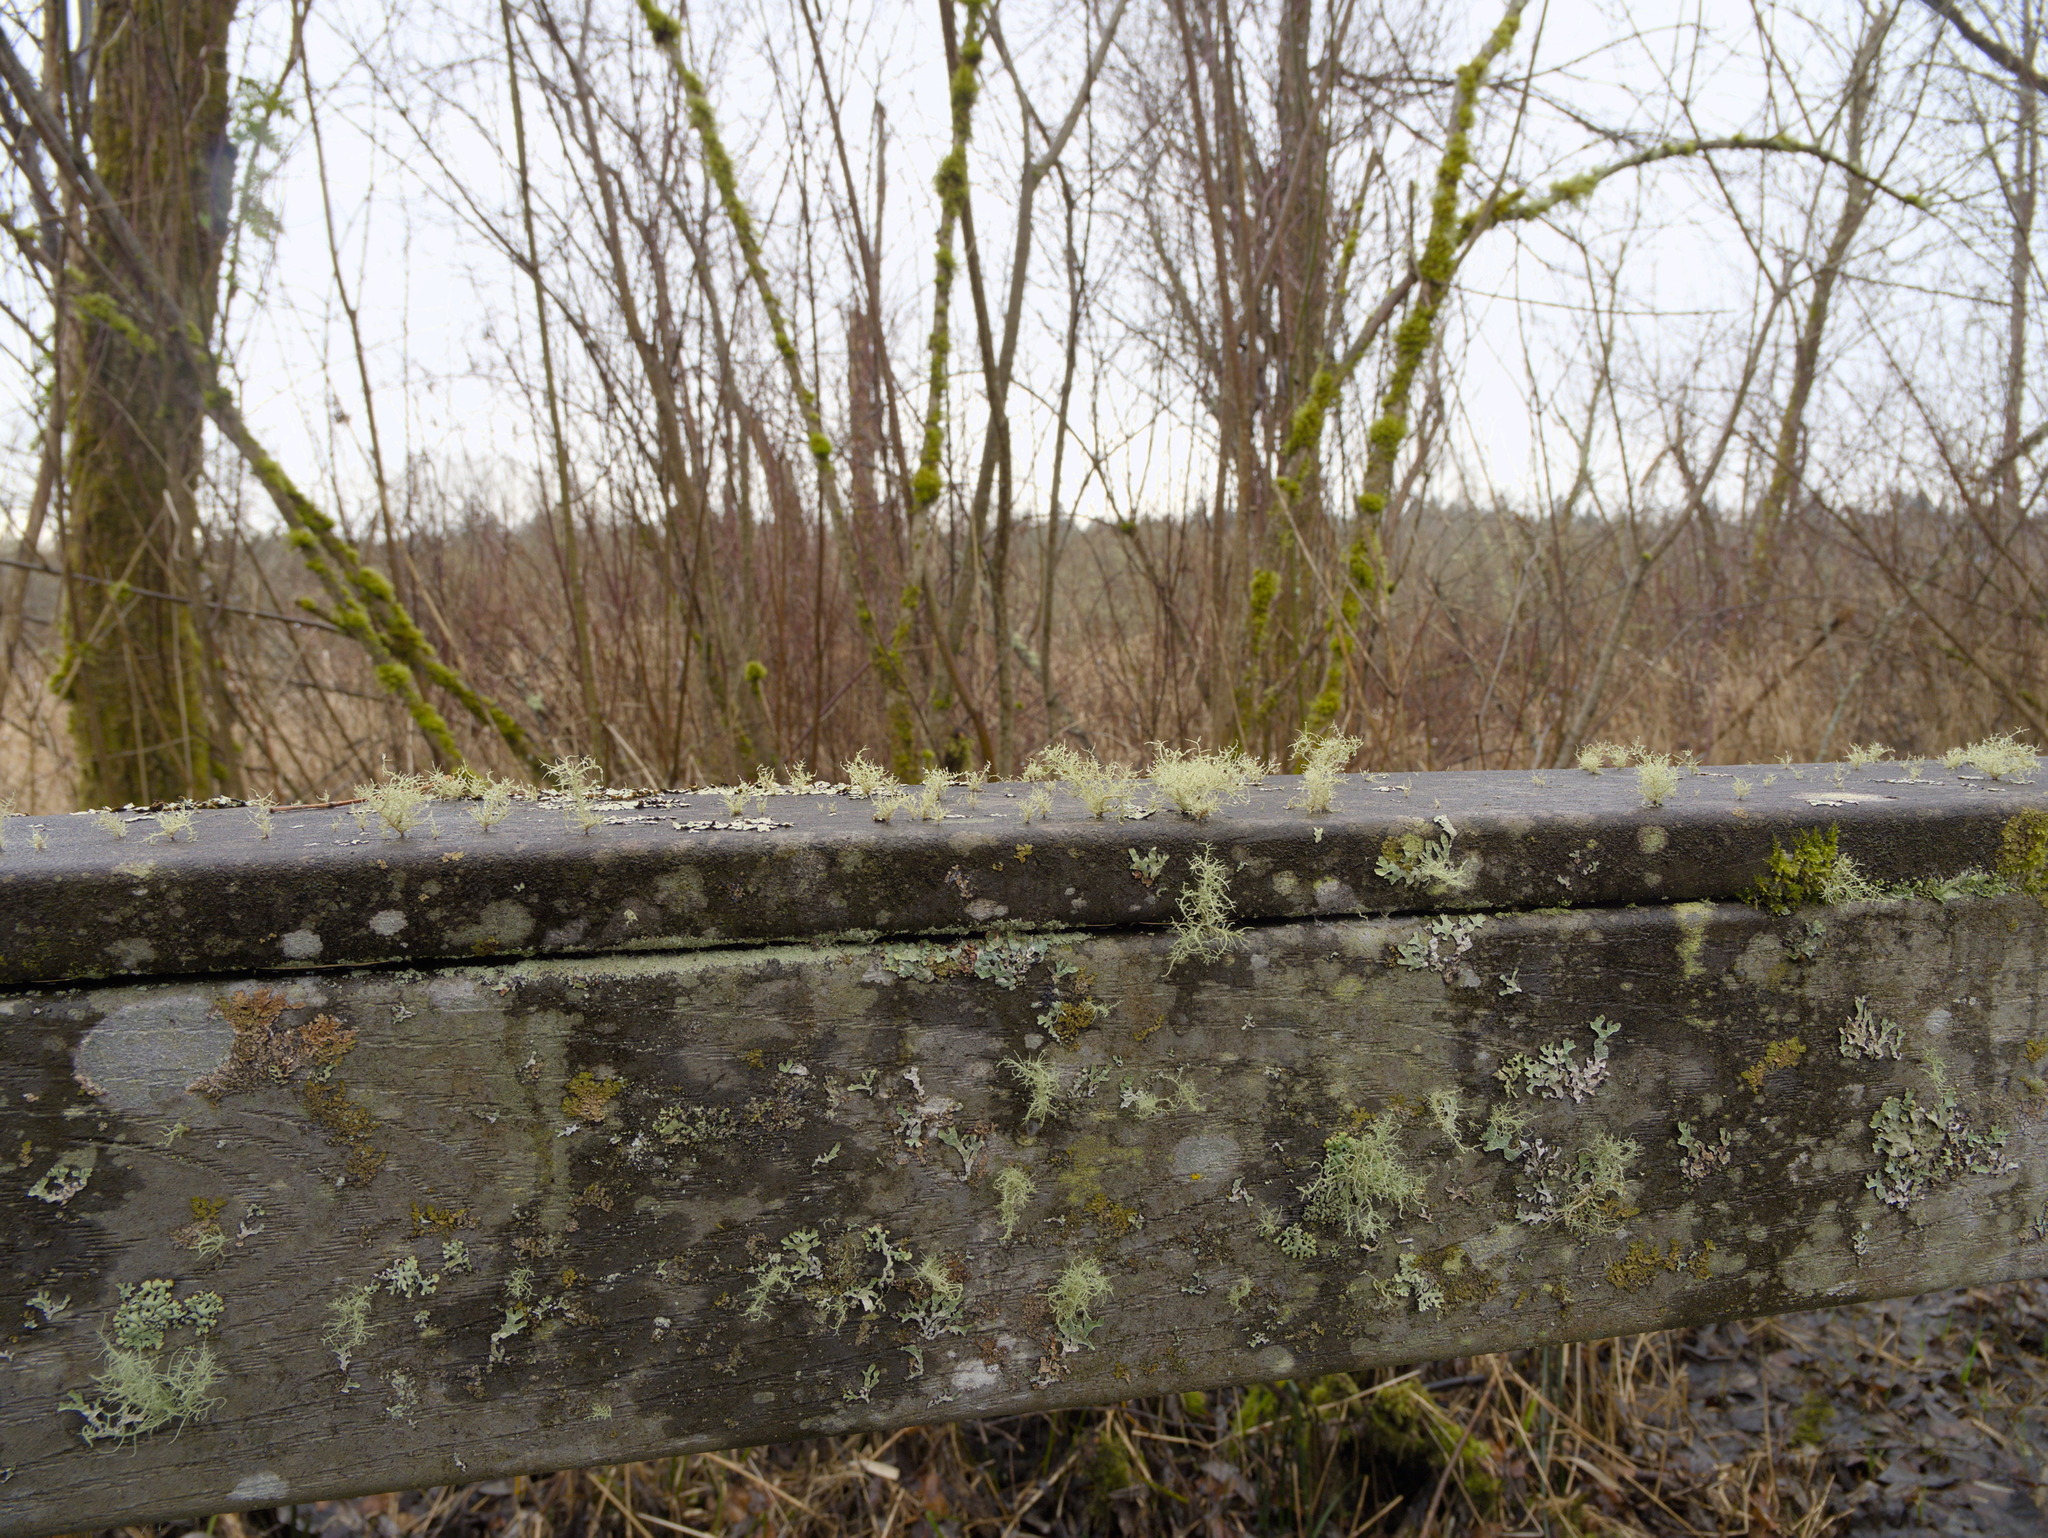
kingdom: Fungi
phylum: Ascomycota
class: Lecanoromycetes
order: Peltigerales
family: Lobariaceae
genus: Lobaria
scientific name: Lobaria pulmonaria
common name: Lungwort
